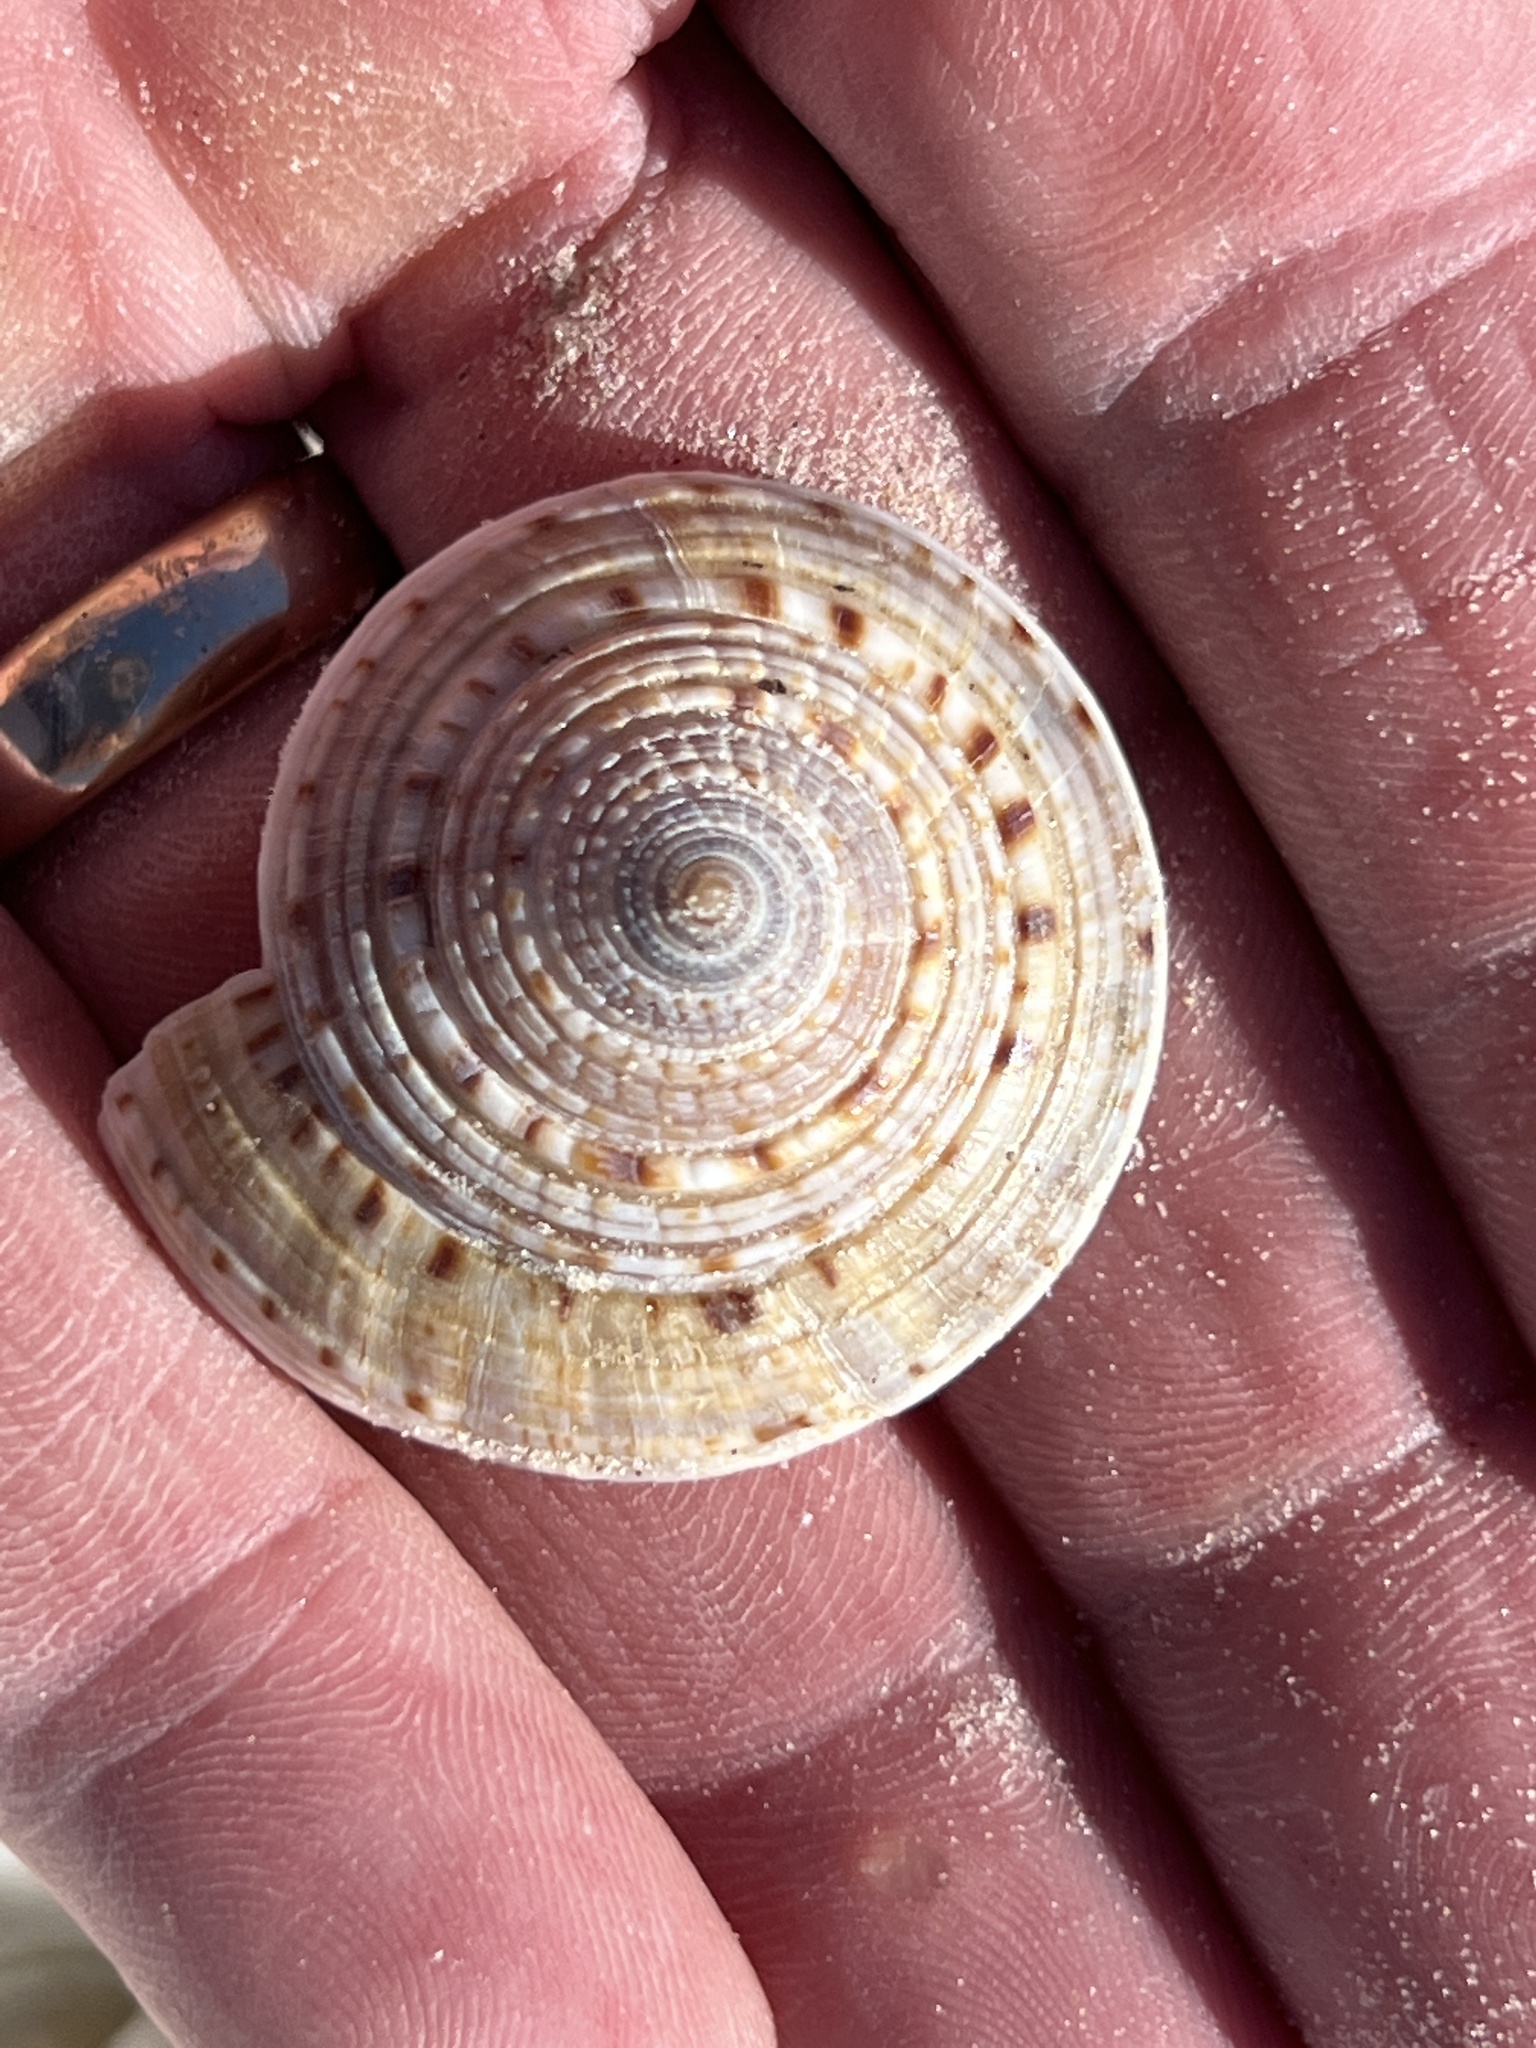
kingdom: Animalia
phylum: Mollusca
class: Gastropoda
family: Architectonicidae
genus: Architectonica
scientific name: Architectonica nobilis
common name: Common sundial
